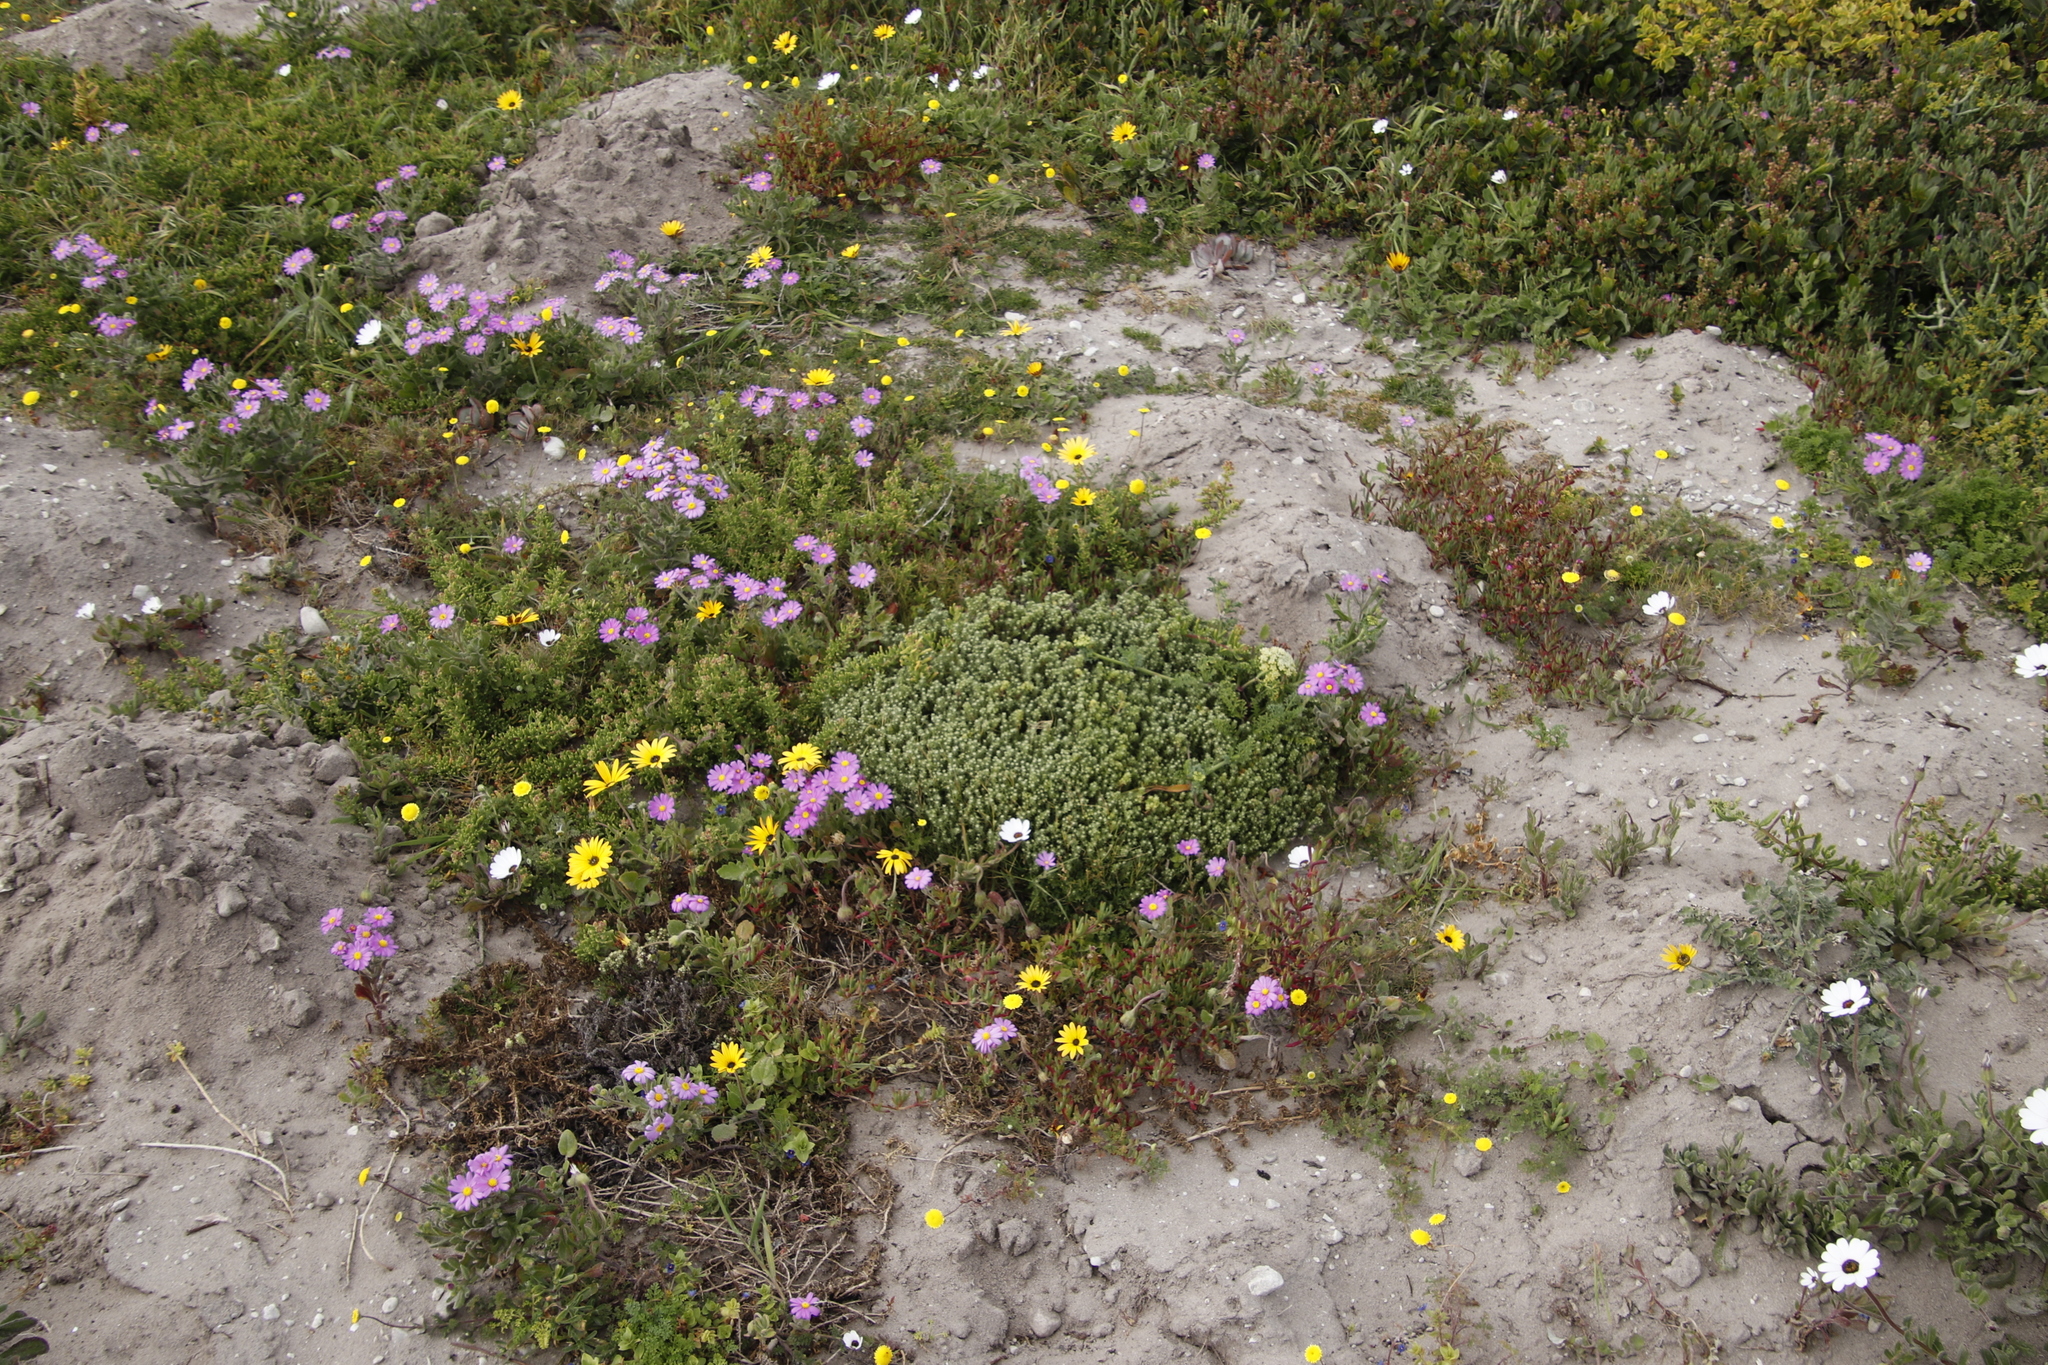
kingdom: Animalia
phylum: Chordata
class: Mammalia
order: Rodentia
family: Bathyergidae
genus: Bathyergus
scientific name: Bathyergus suillus
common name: Cape dune mole rat
